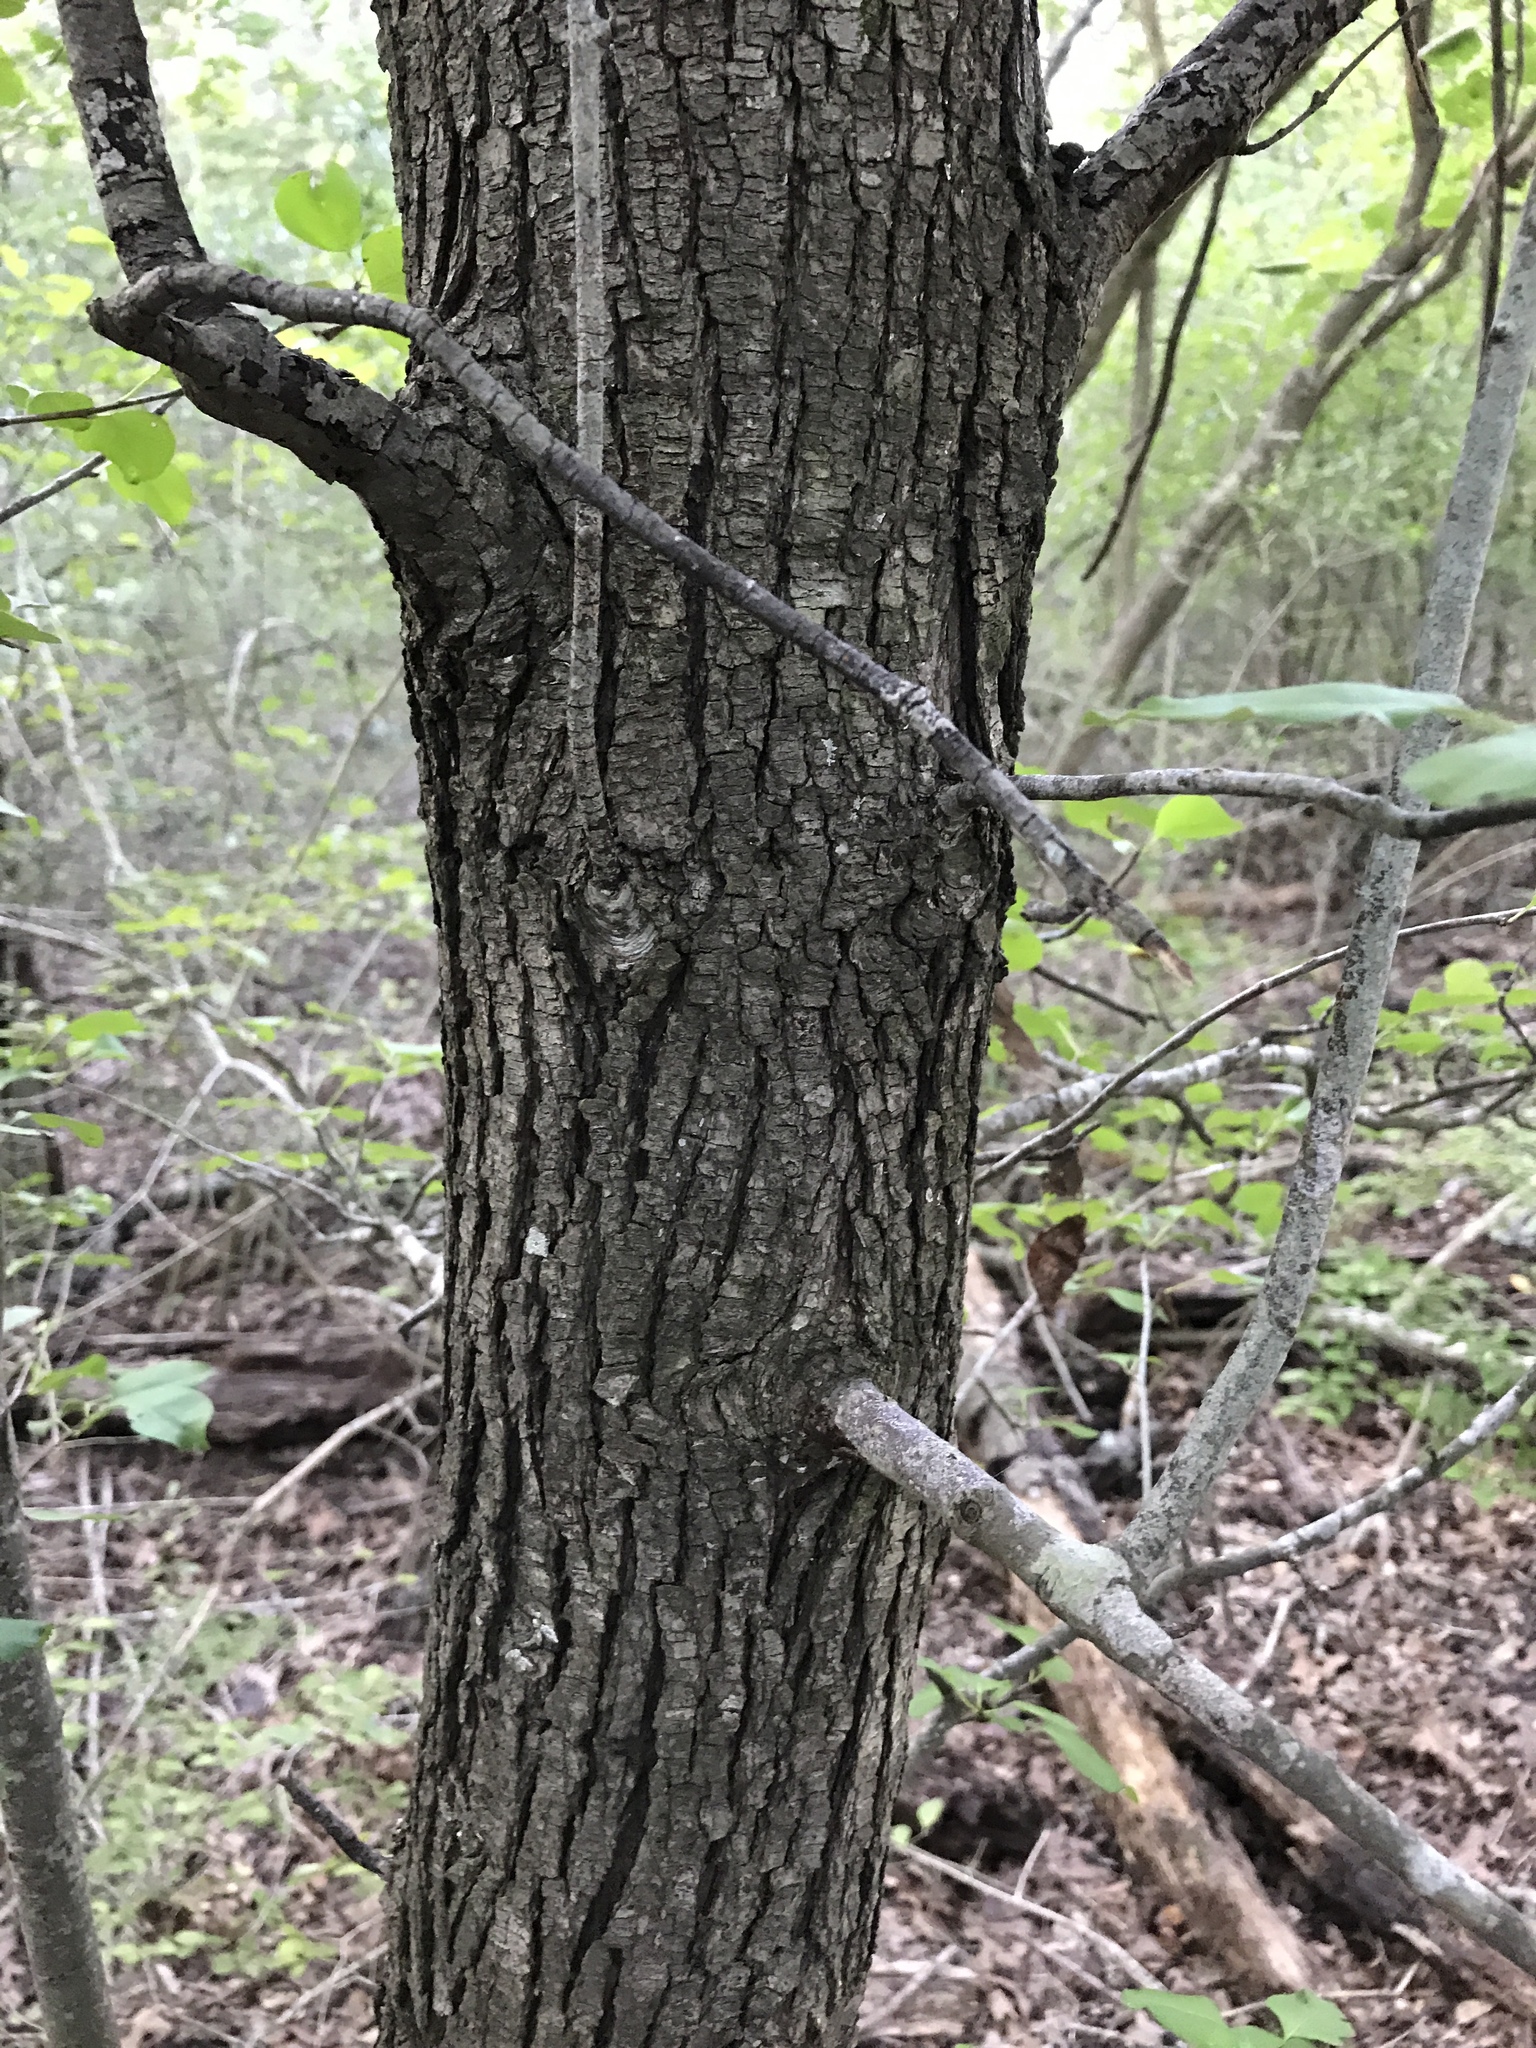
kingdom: Plantae
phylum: Tracheophyta
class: Magnoliopsida
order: Rosales
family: Rosaceae
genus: Pyrus
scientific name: Pyrus calleryana
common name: Callery pear
